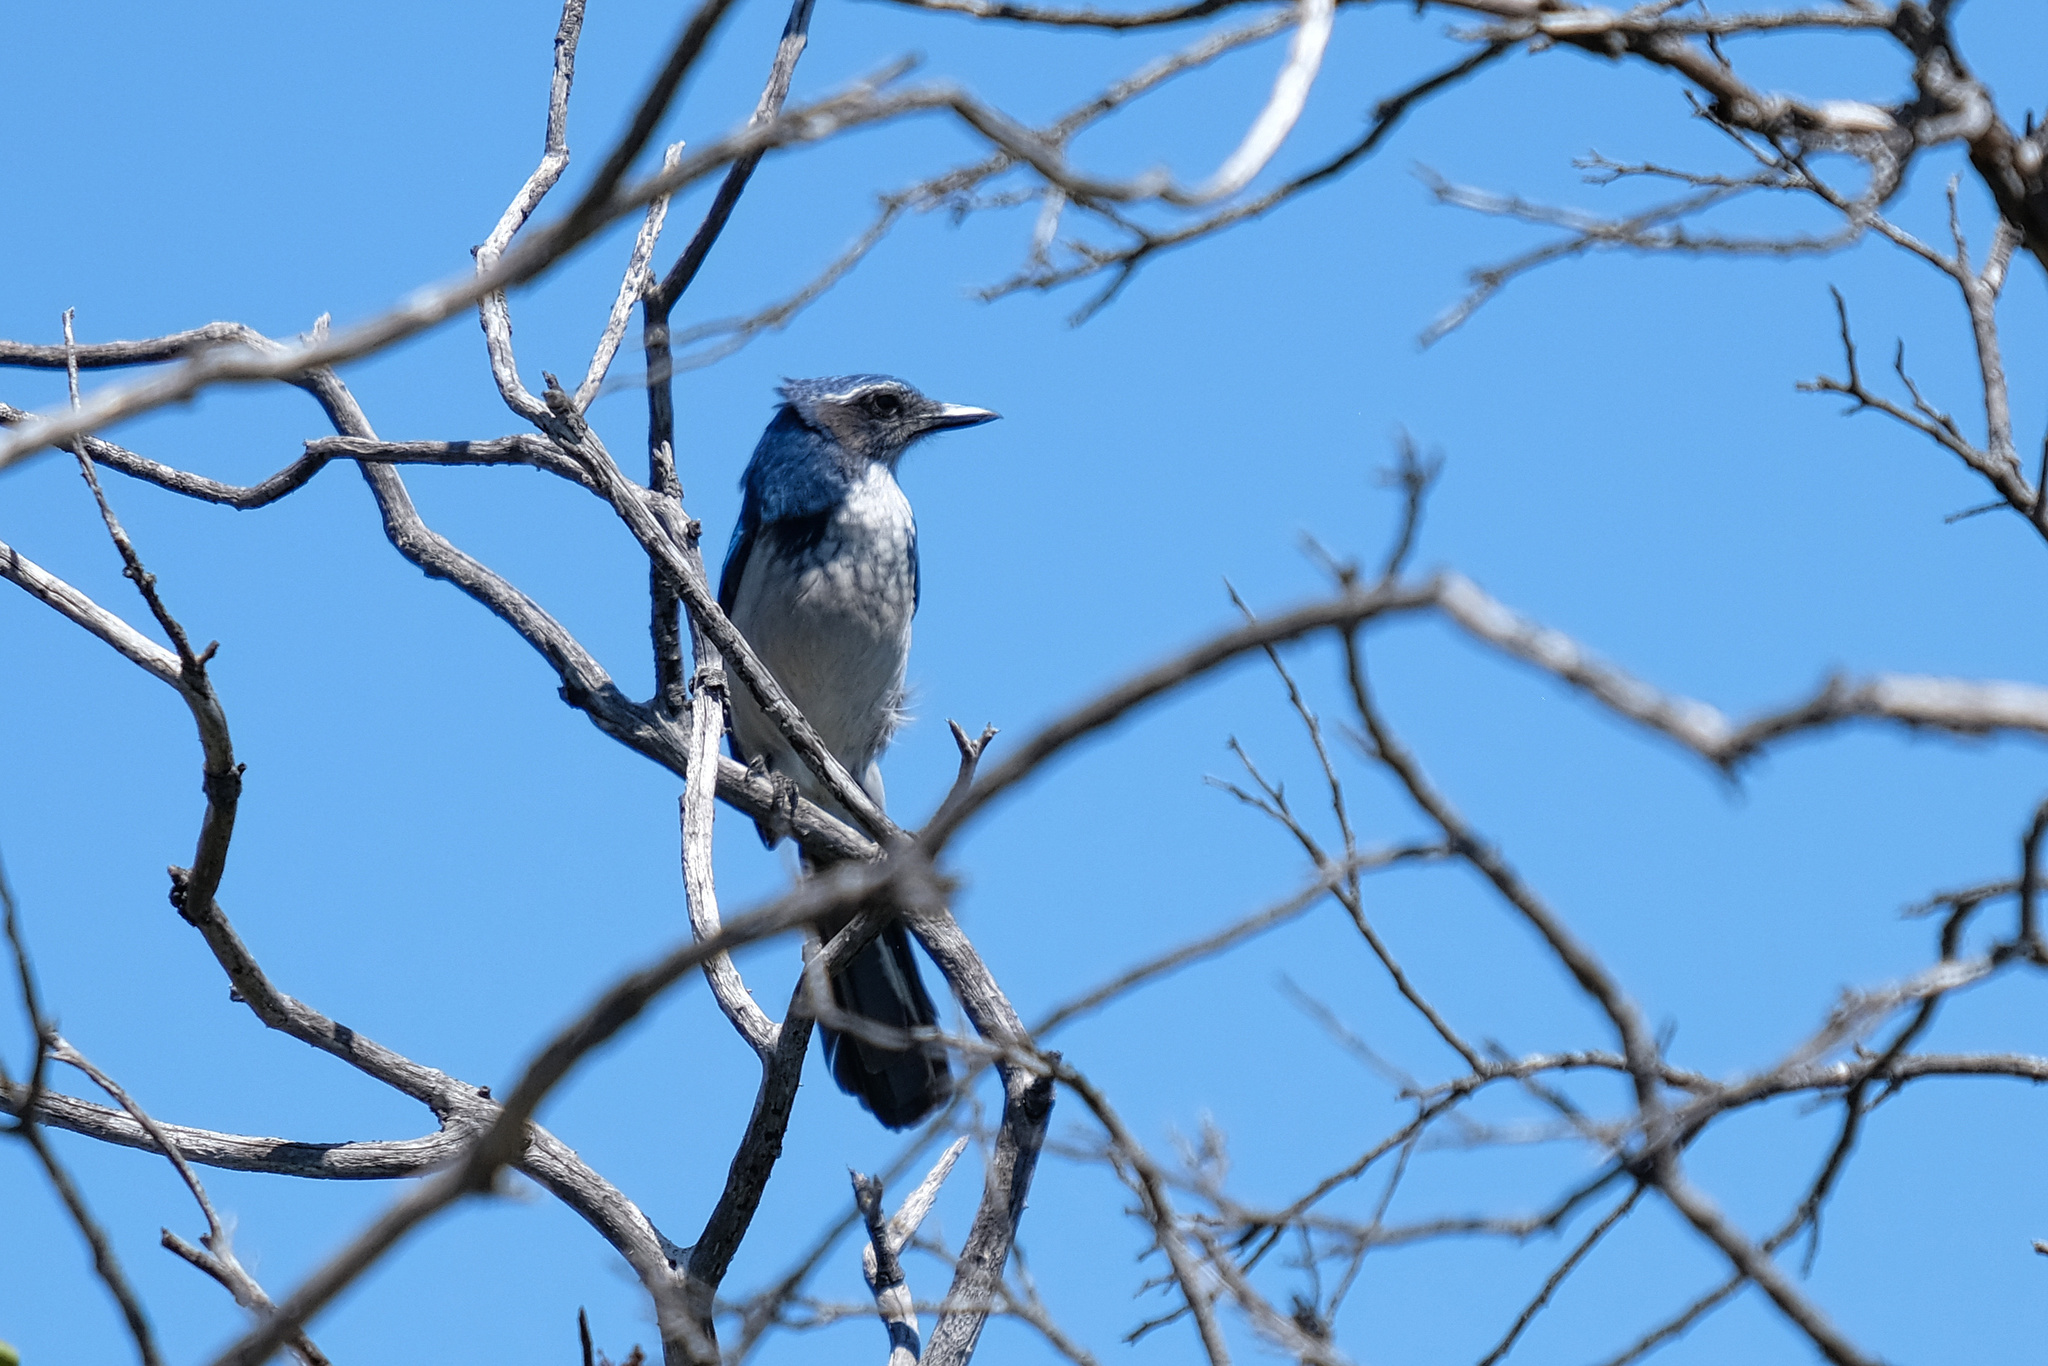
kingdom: Animalia
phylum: Chordata
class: Aves
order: Passeriformes
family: Corvidae
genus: Aphelocoma
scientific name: Aphelocoma californica
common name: California scrub-jay
